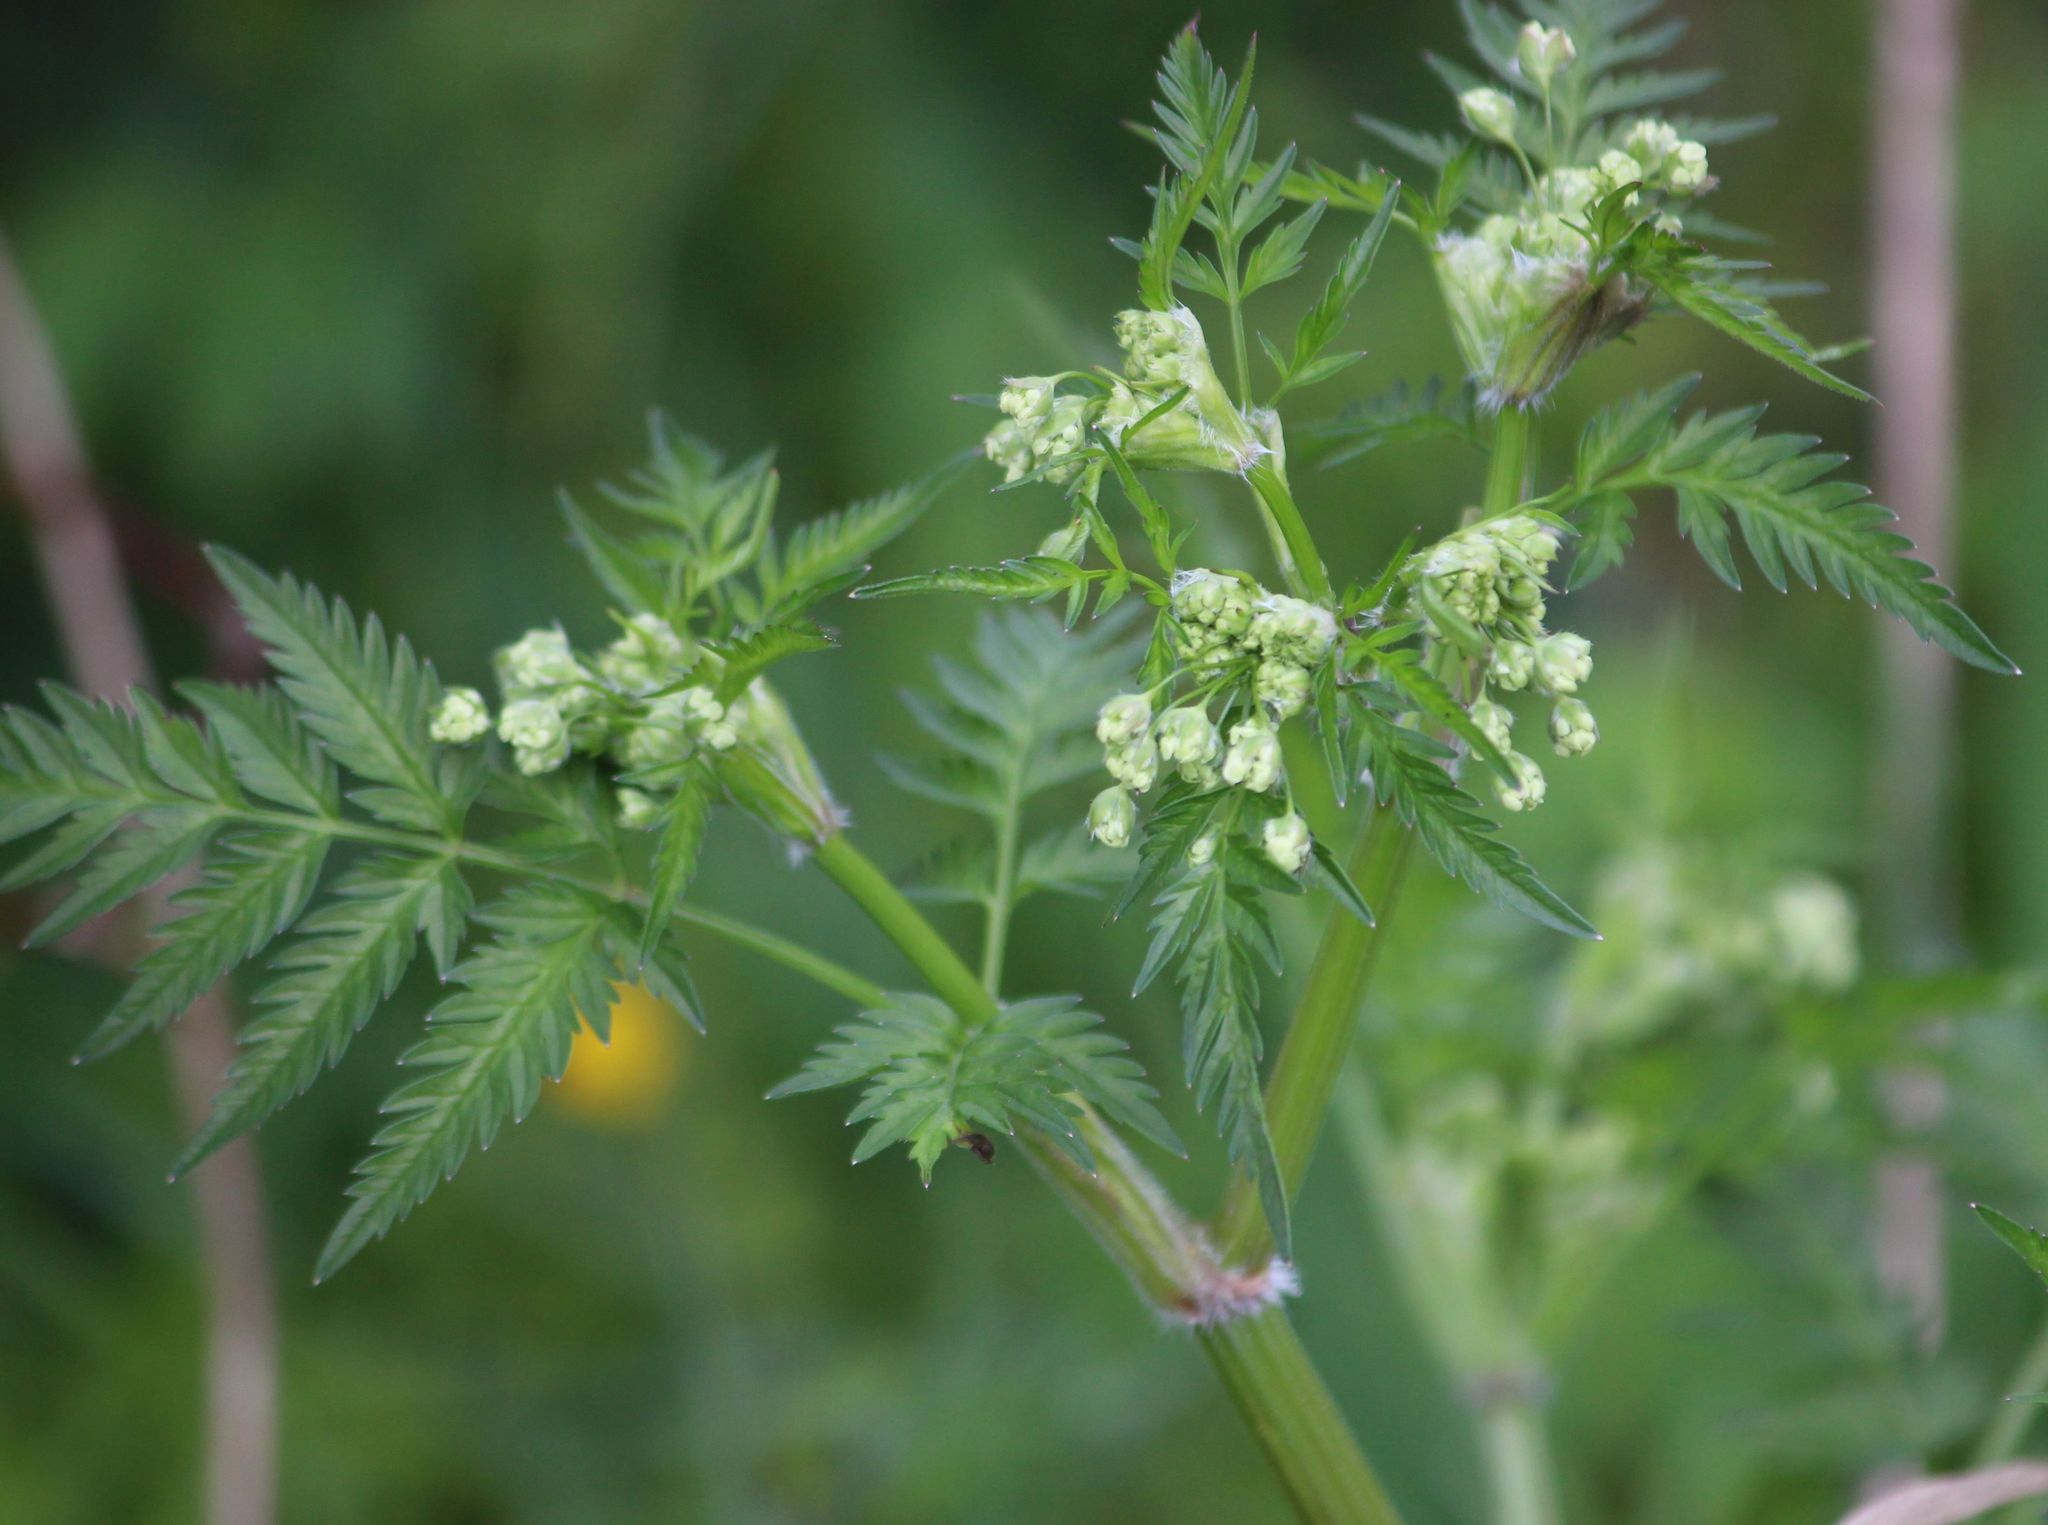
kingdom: Plantae
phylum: Tracheophyta
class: Magnoliopsida
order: Apiales
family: Apiaceae
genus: Anthriscus
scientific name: Anthriscus sylvestris
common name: Cow parsley
